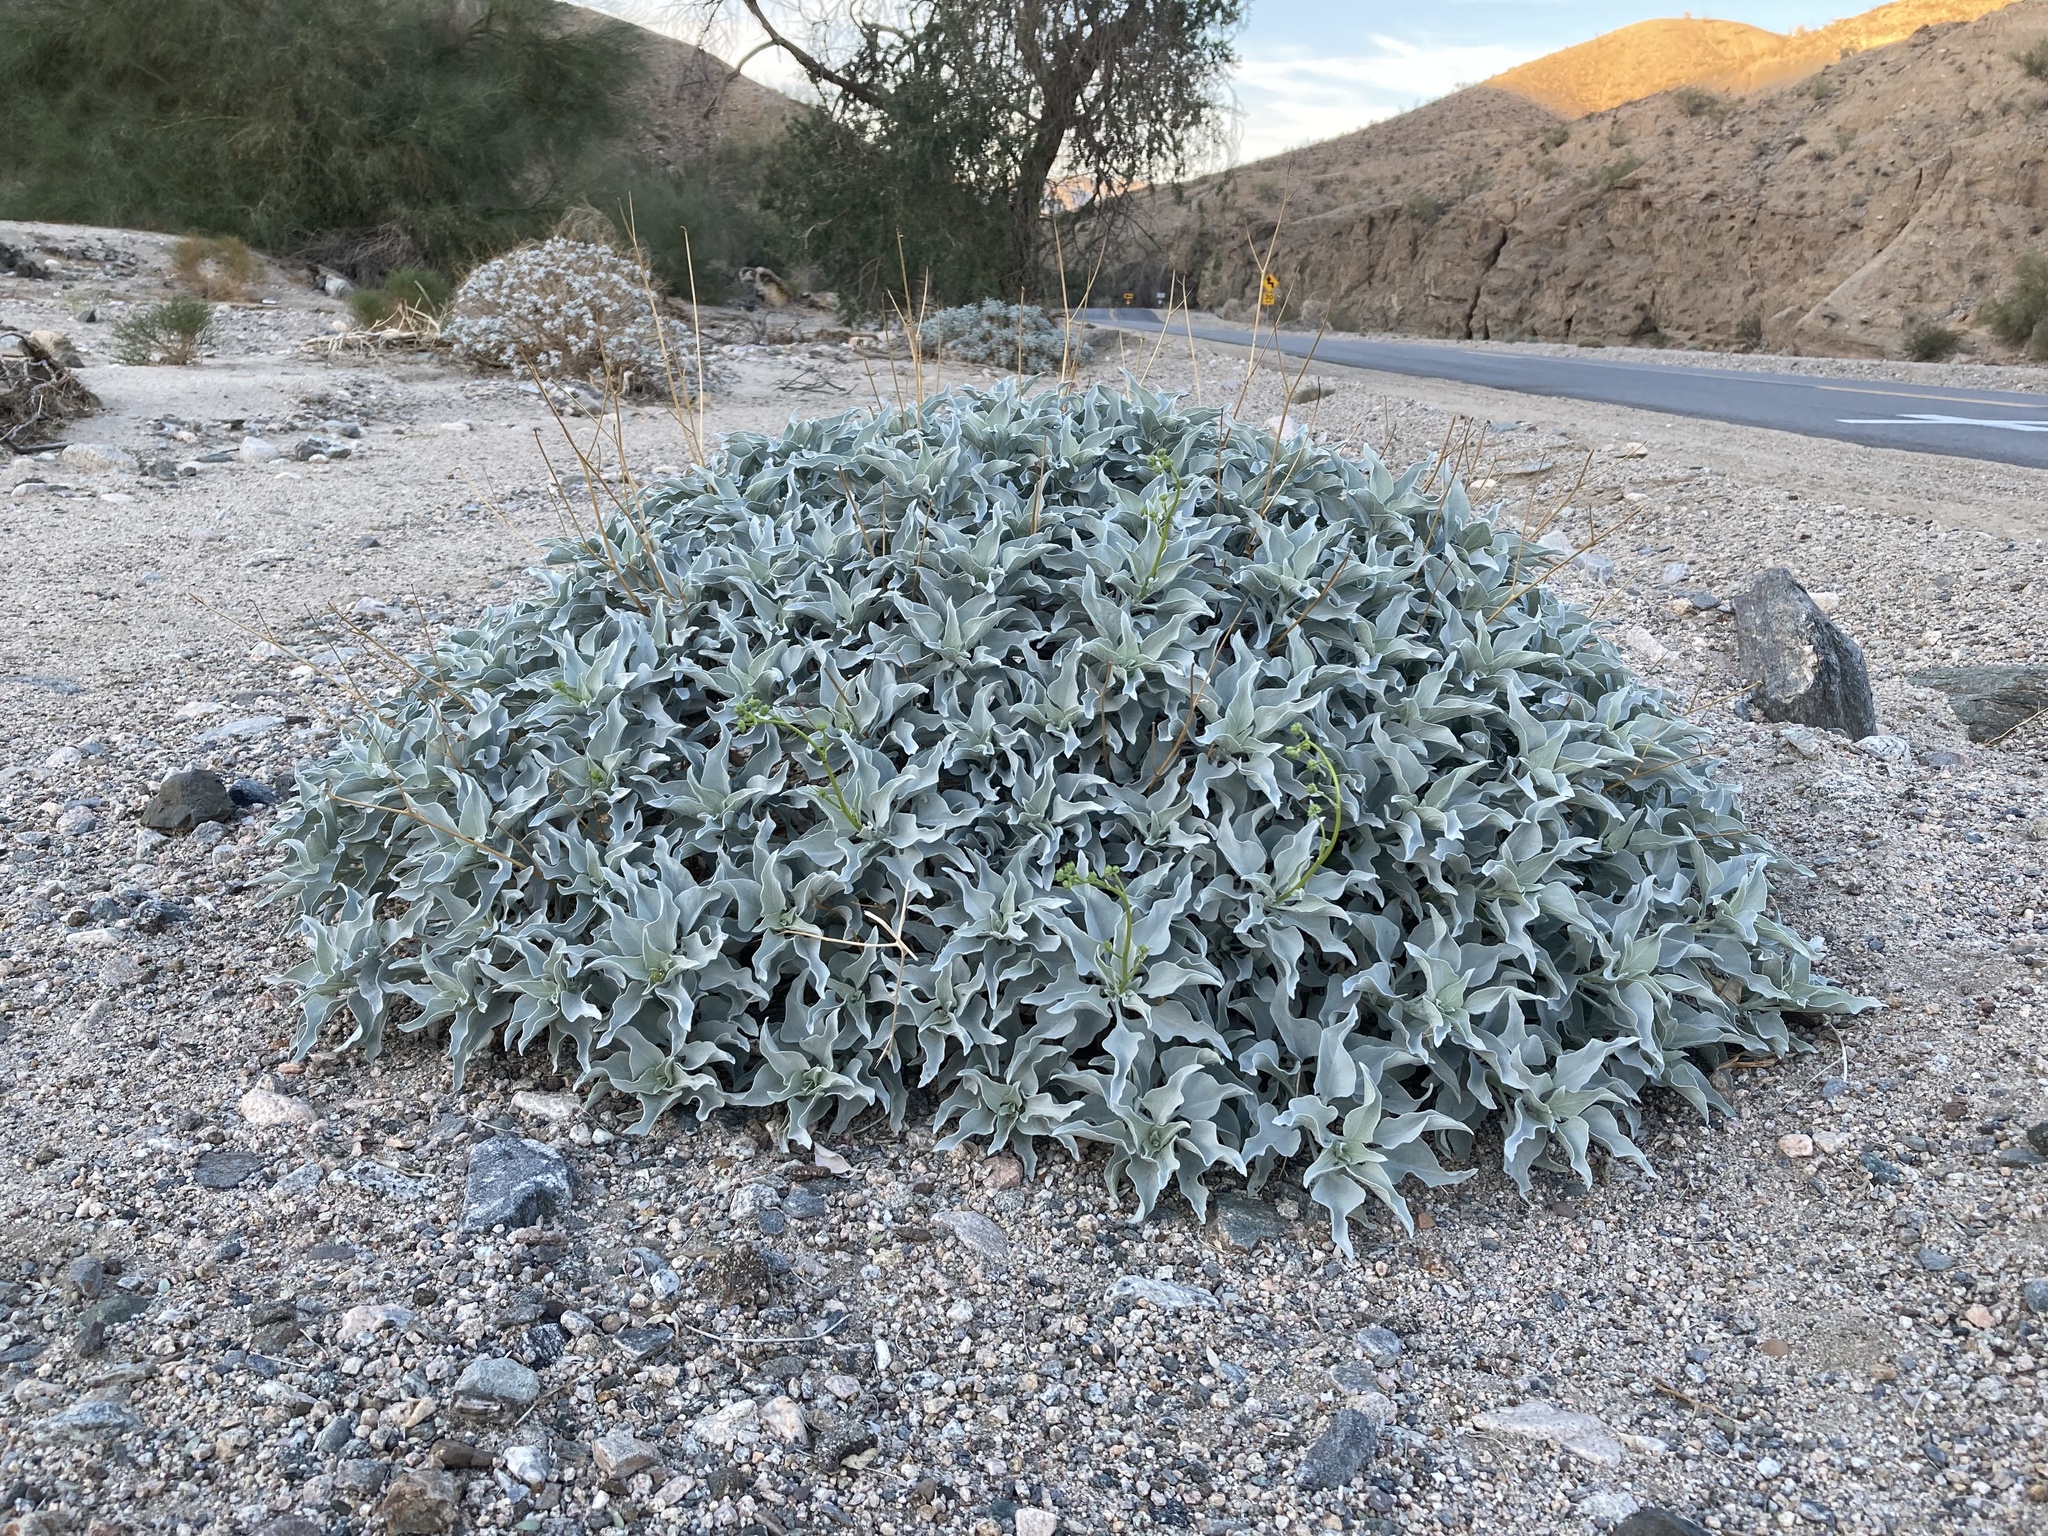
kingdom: Plantae
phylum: Tracheophyta
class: Magnoliopsida
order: Asterales
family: Asteraceae
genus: Encelia
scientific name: Encelia farinosa
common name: Brittlebush
